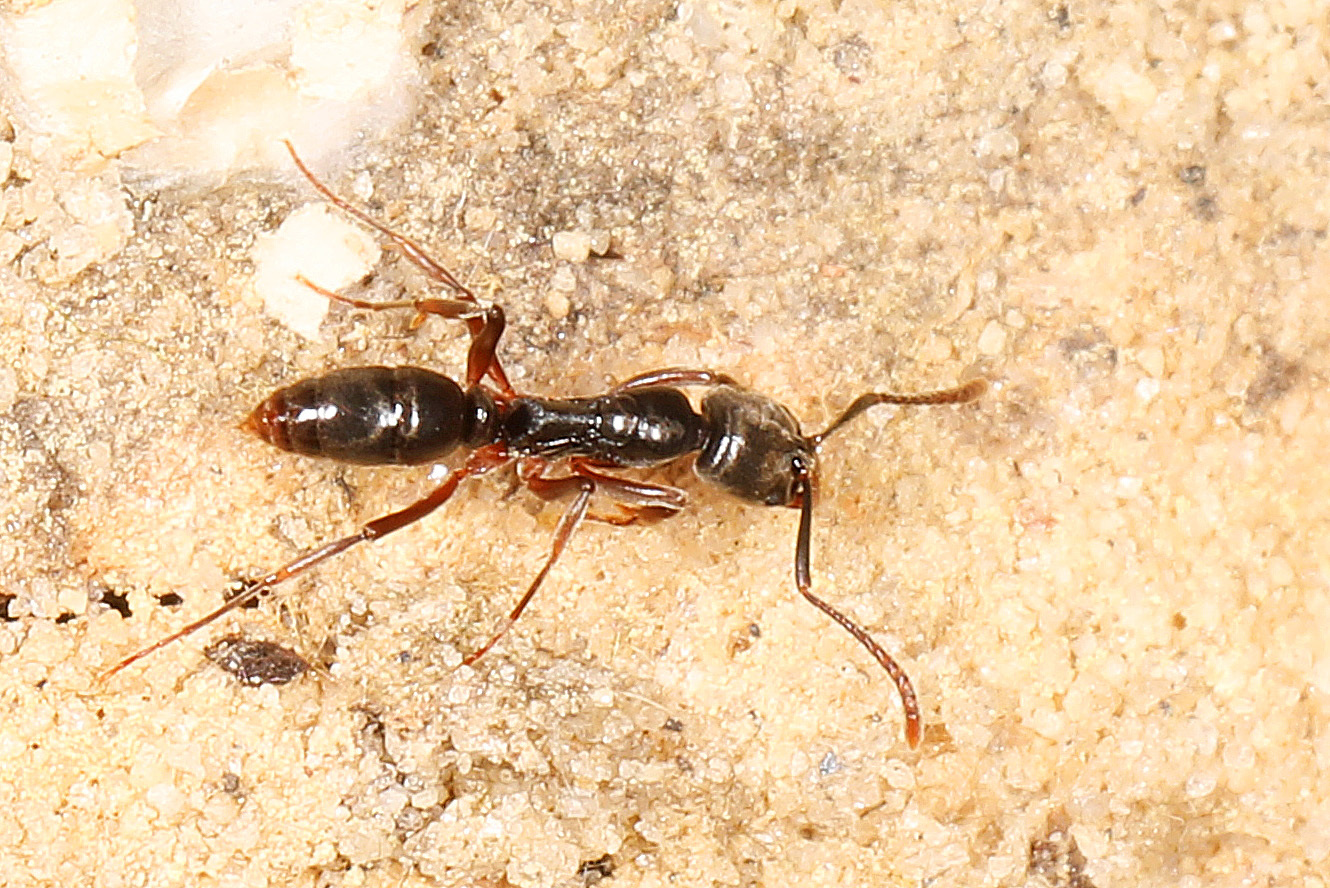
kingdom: Animalia
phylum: Arthropoda
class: Insecta
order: Hymenoptera
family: Formicidae
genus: Pachycondyla
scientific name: Pachycondyla chinensis
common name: Asian needle ant
